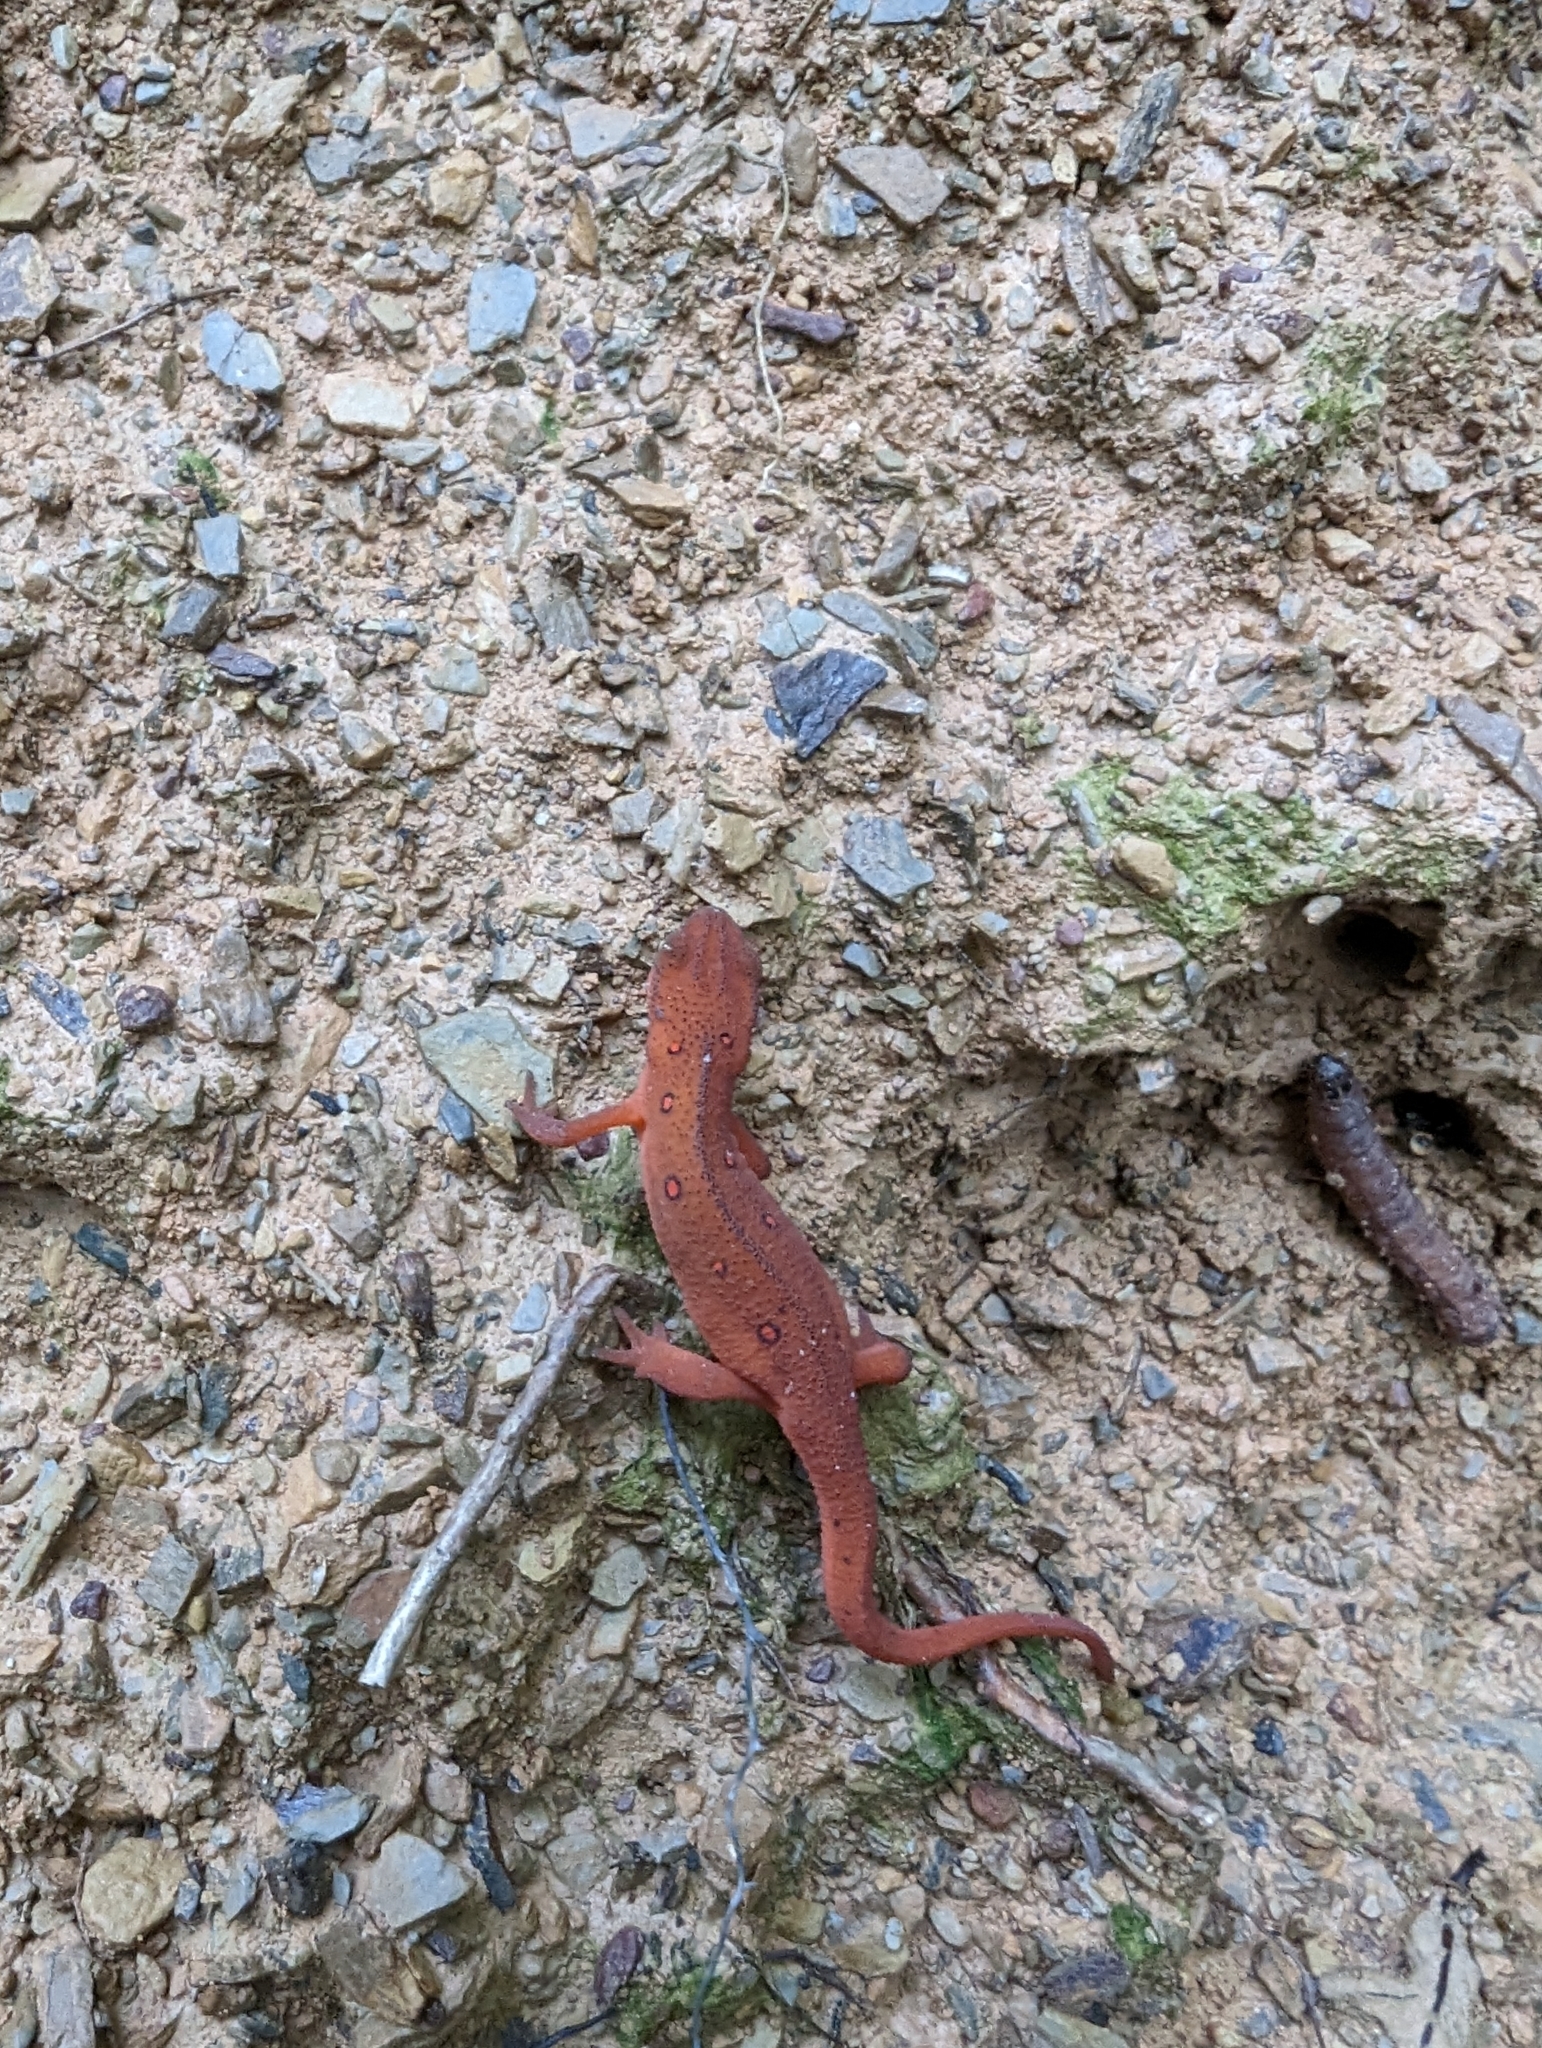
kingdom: Animalia
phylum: Chordata
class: Amphibia
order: Caudata
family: Salamandridae
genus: Notophthalmus
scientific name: Notophthalmus viridescens
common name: Eastern newt
